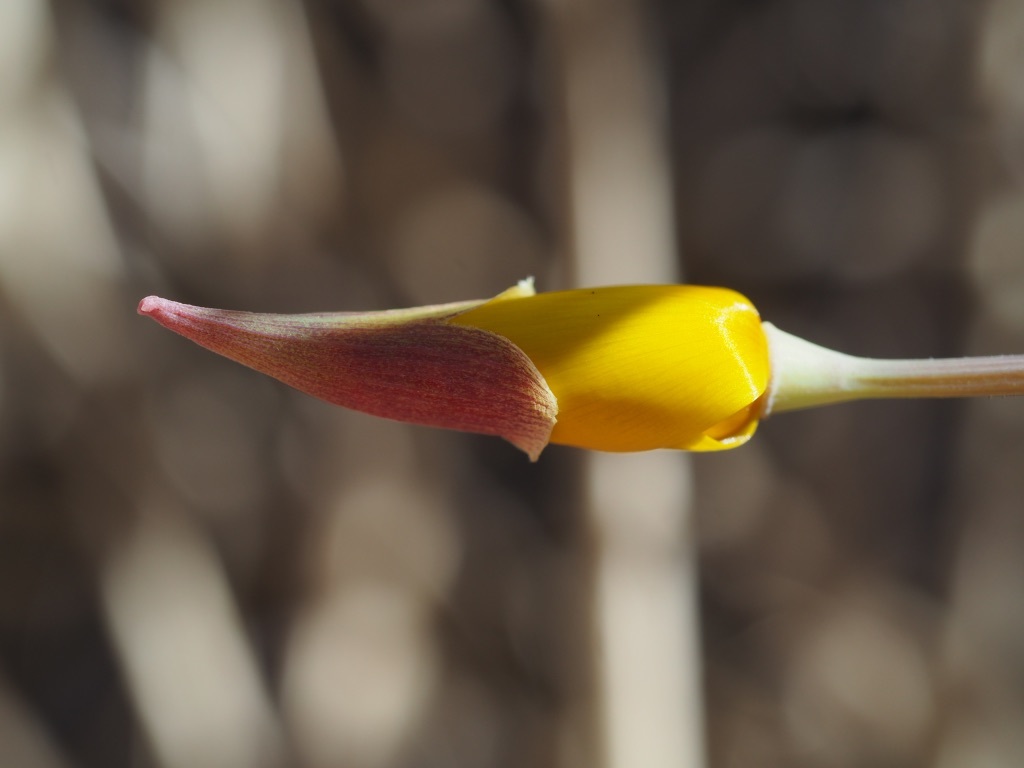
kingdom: Plantae
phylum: Tracheophyta
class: Magnoliopsida
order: Ranunculales
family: Papaveraceae
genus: Eschscholzia
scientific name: Eschscholzia caespitosa
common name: Tufted california-poppy
